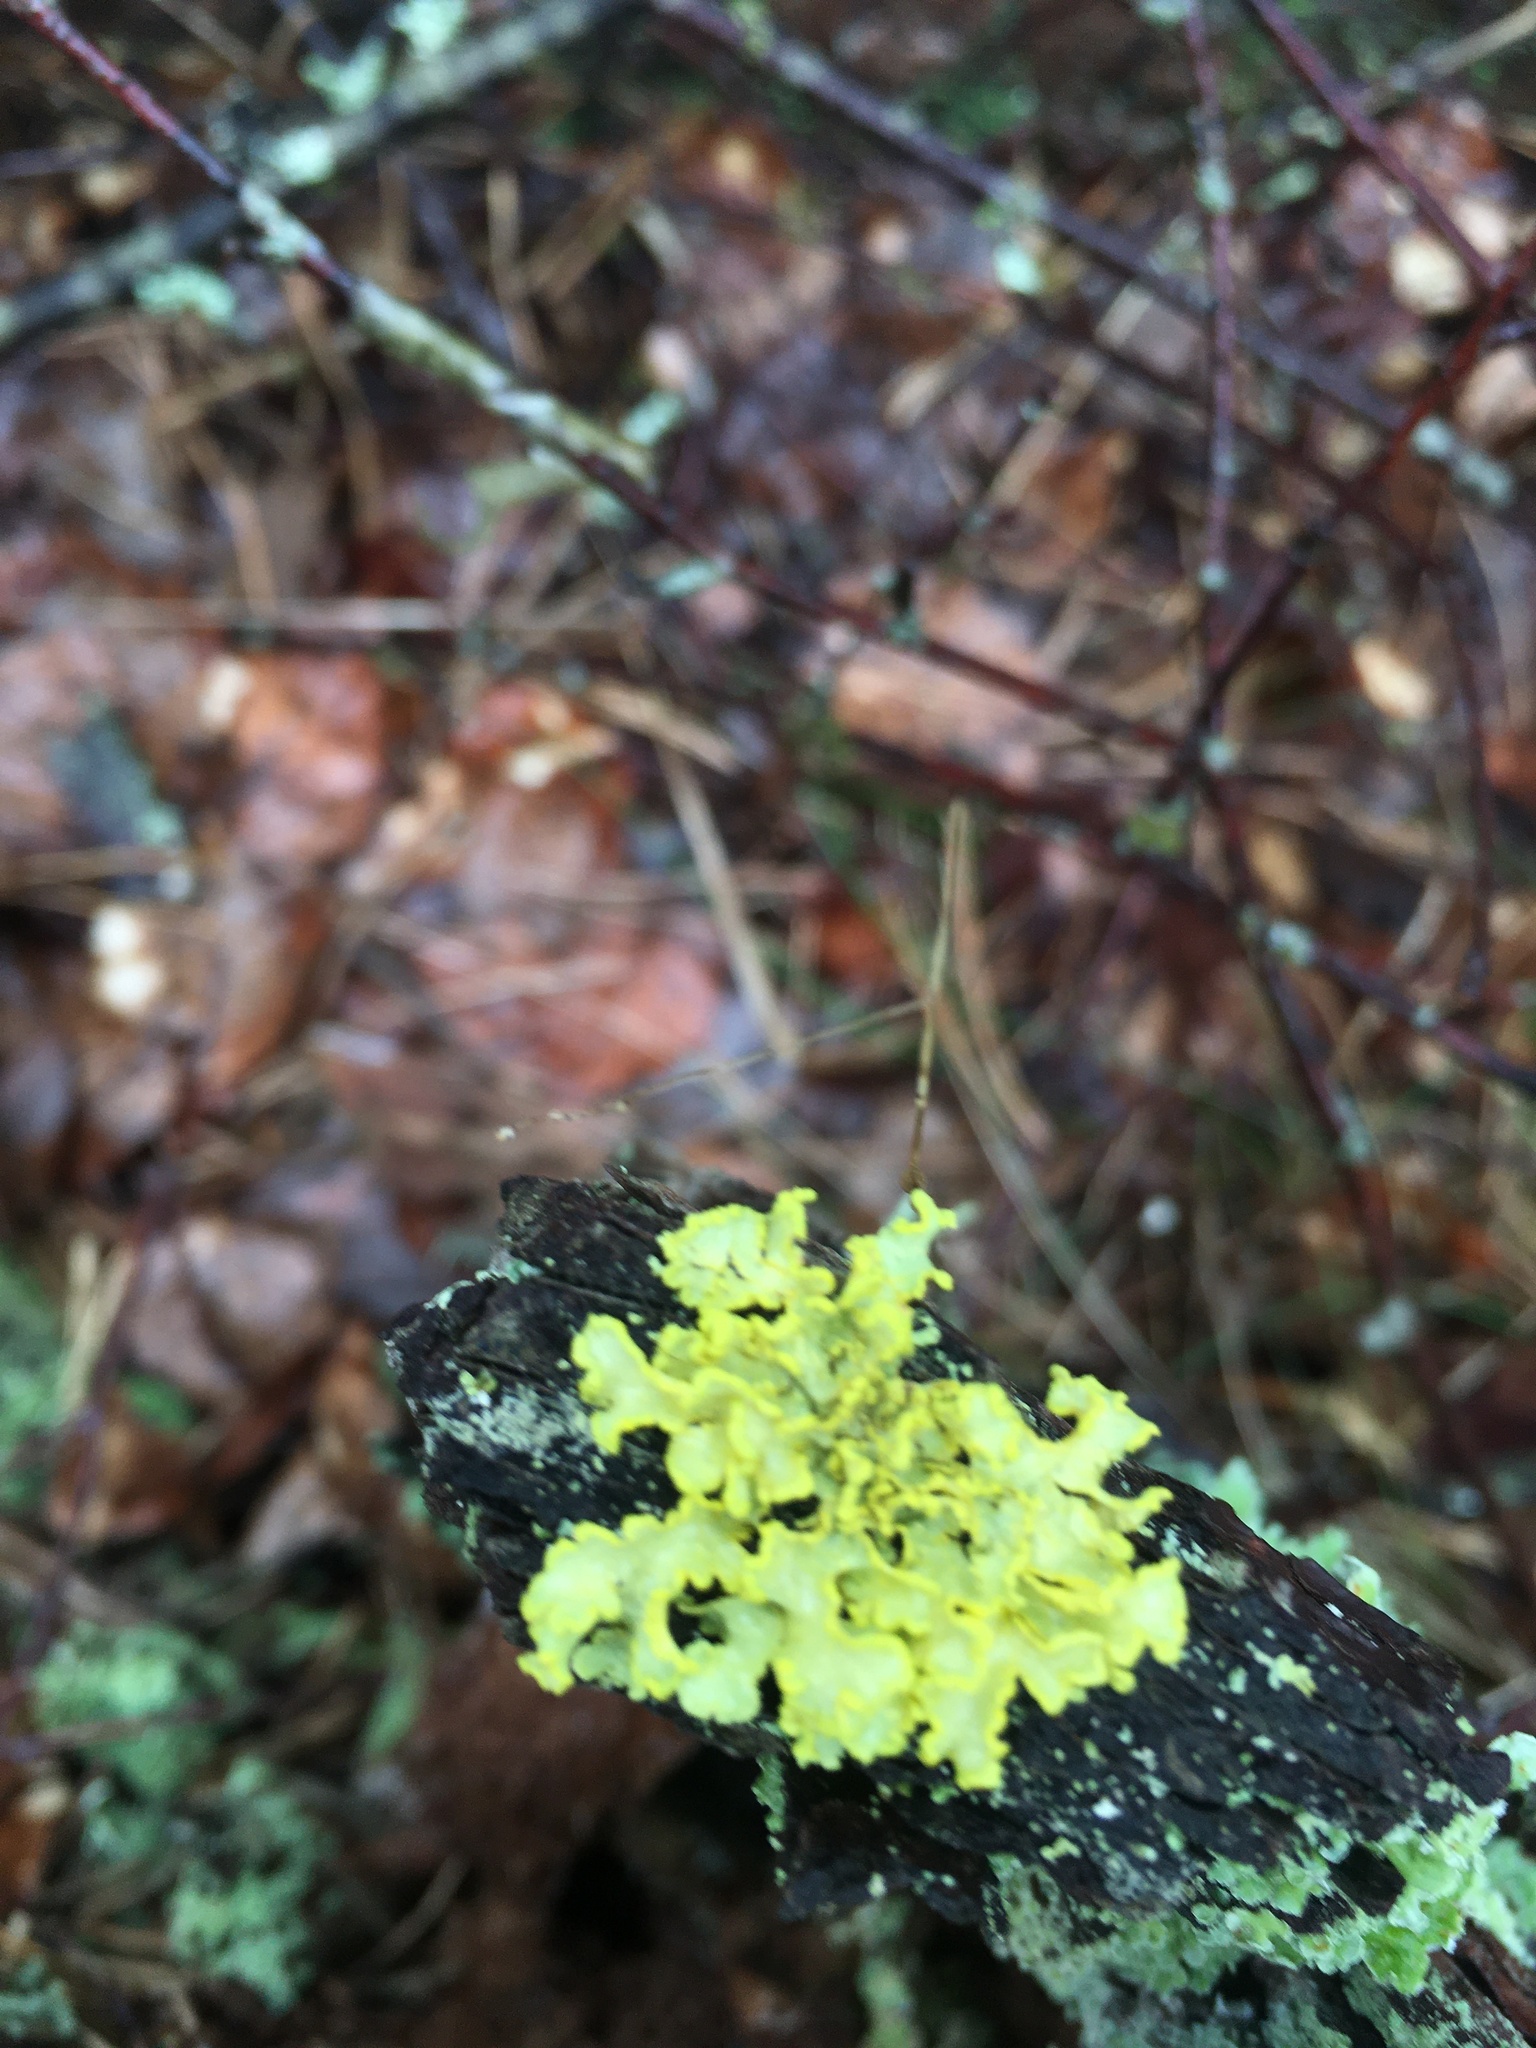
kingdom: Fungi
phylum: Ascomycota
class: Lecanoromycetes
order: Lecanorales
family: Parmeliaceae
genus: Vulpicida
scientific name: Vulpicida pinastri
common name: Powdered sunshine lichen
